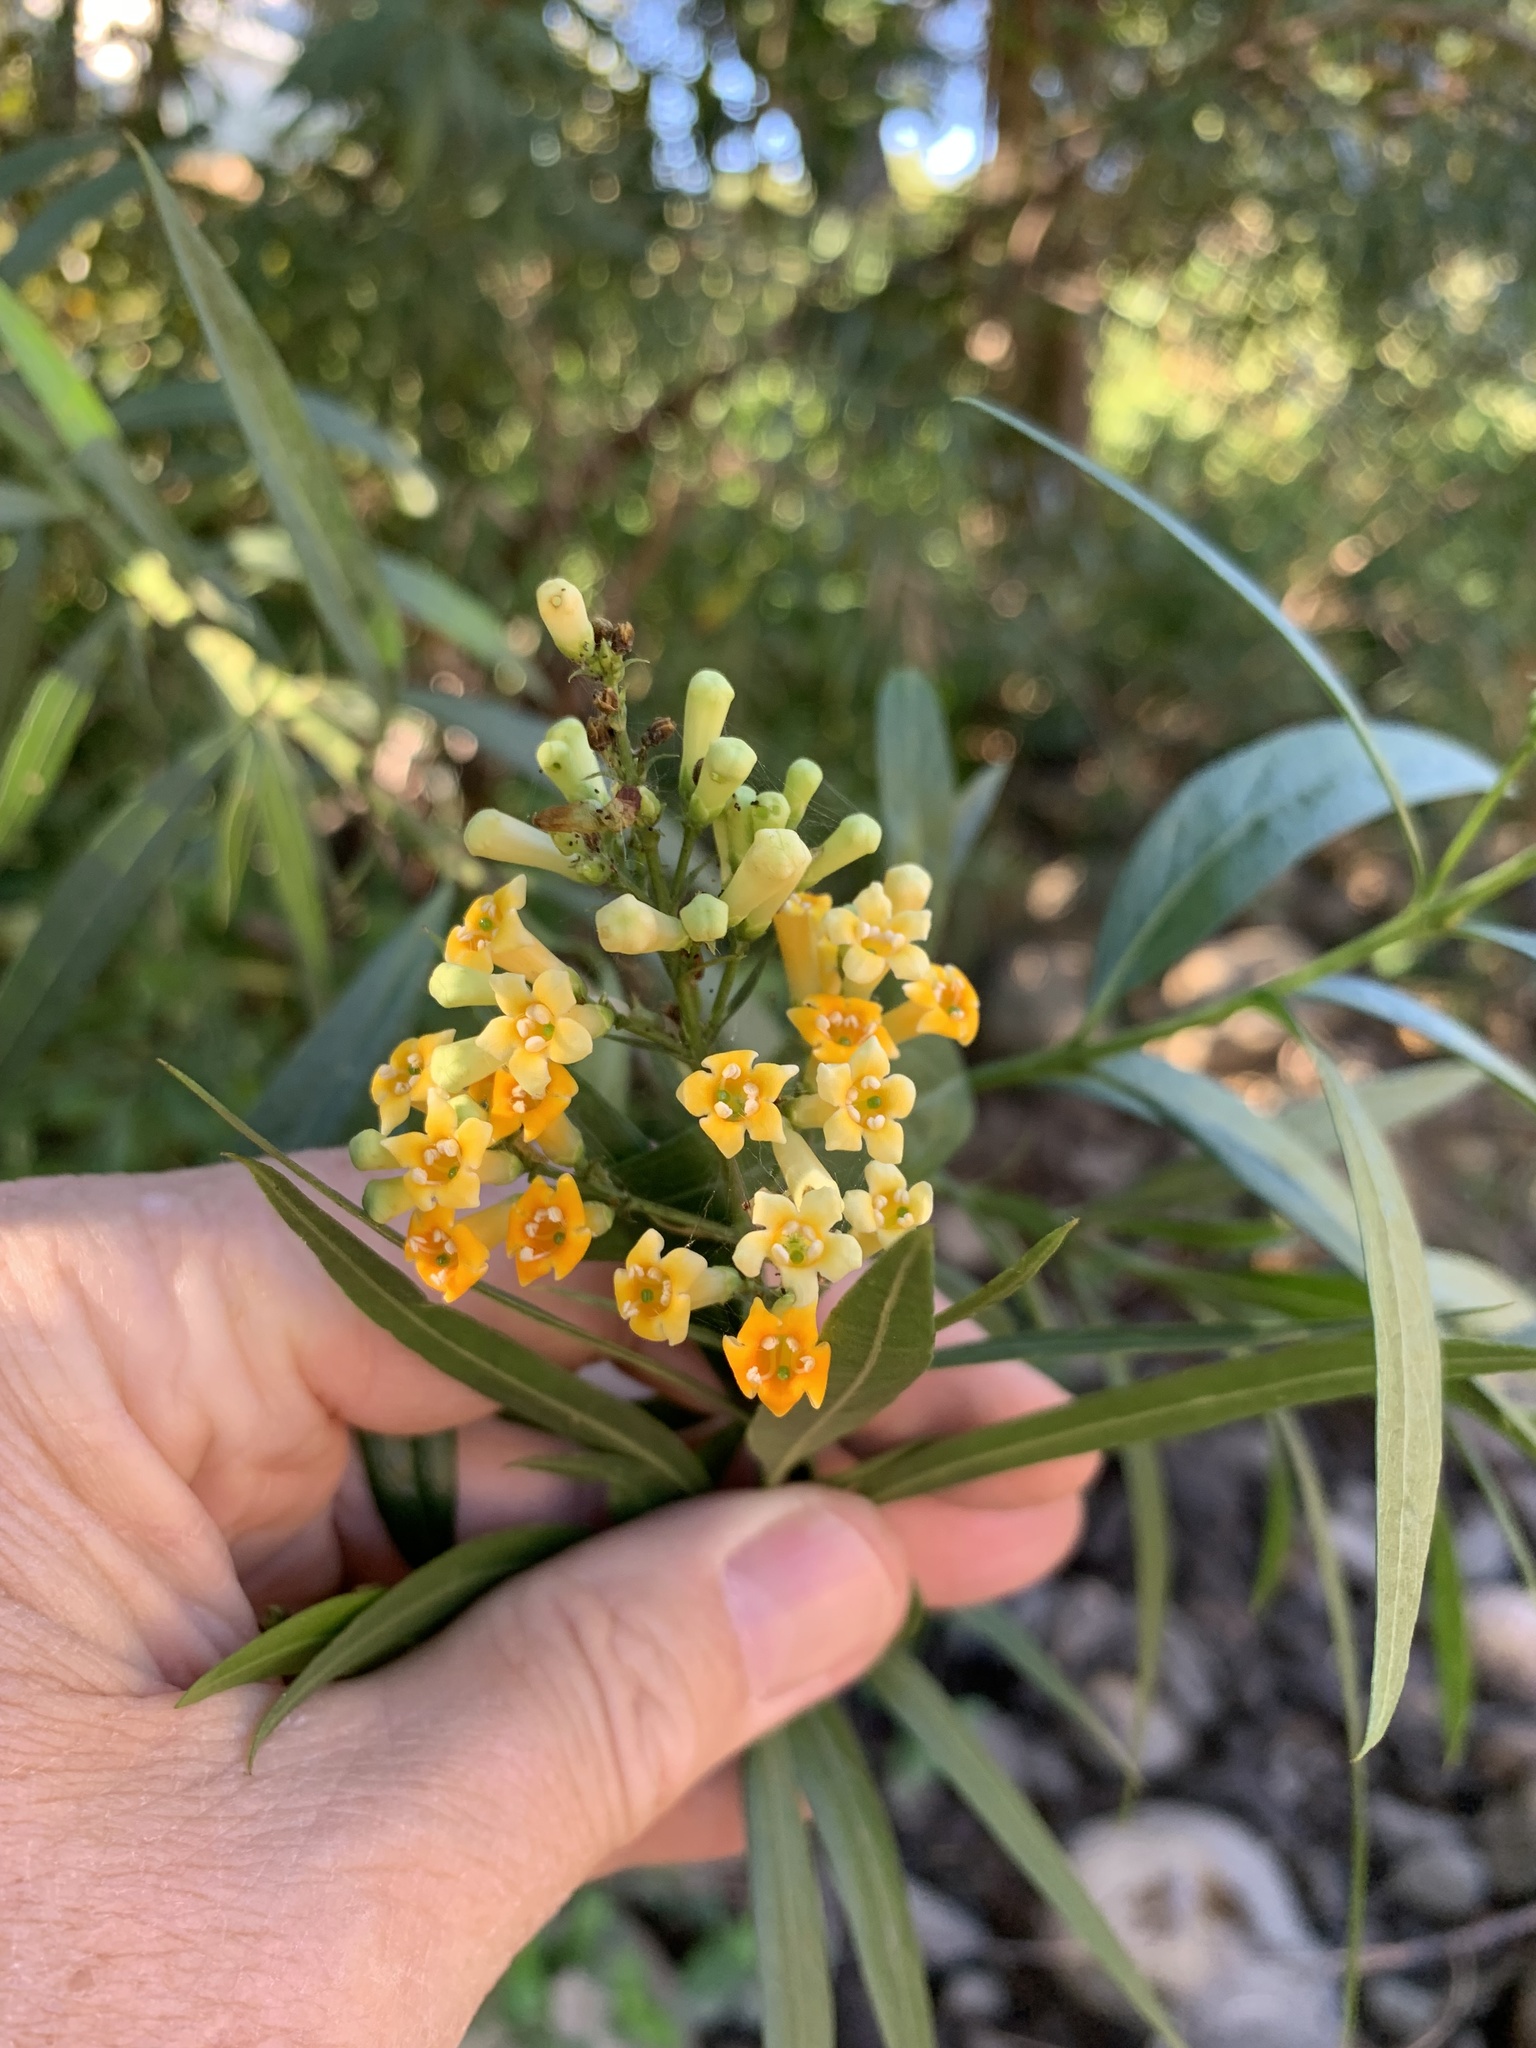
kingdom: Plantae
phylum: Tracheophyta
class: Magnoliopsida
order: Lamiales
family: Scrophulariaceae
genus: Freylinia
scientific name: Freylinia lanceolata
